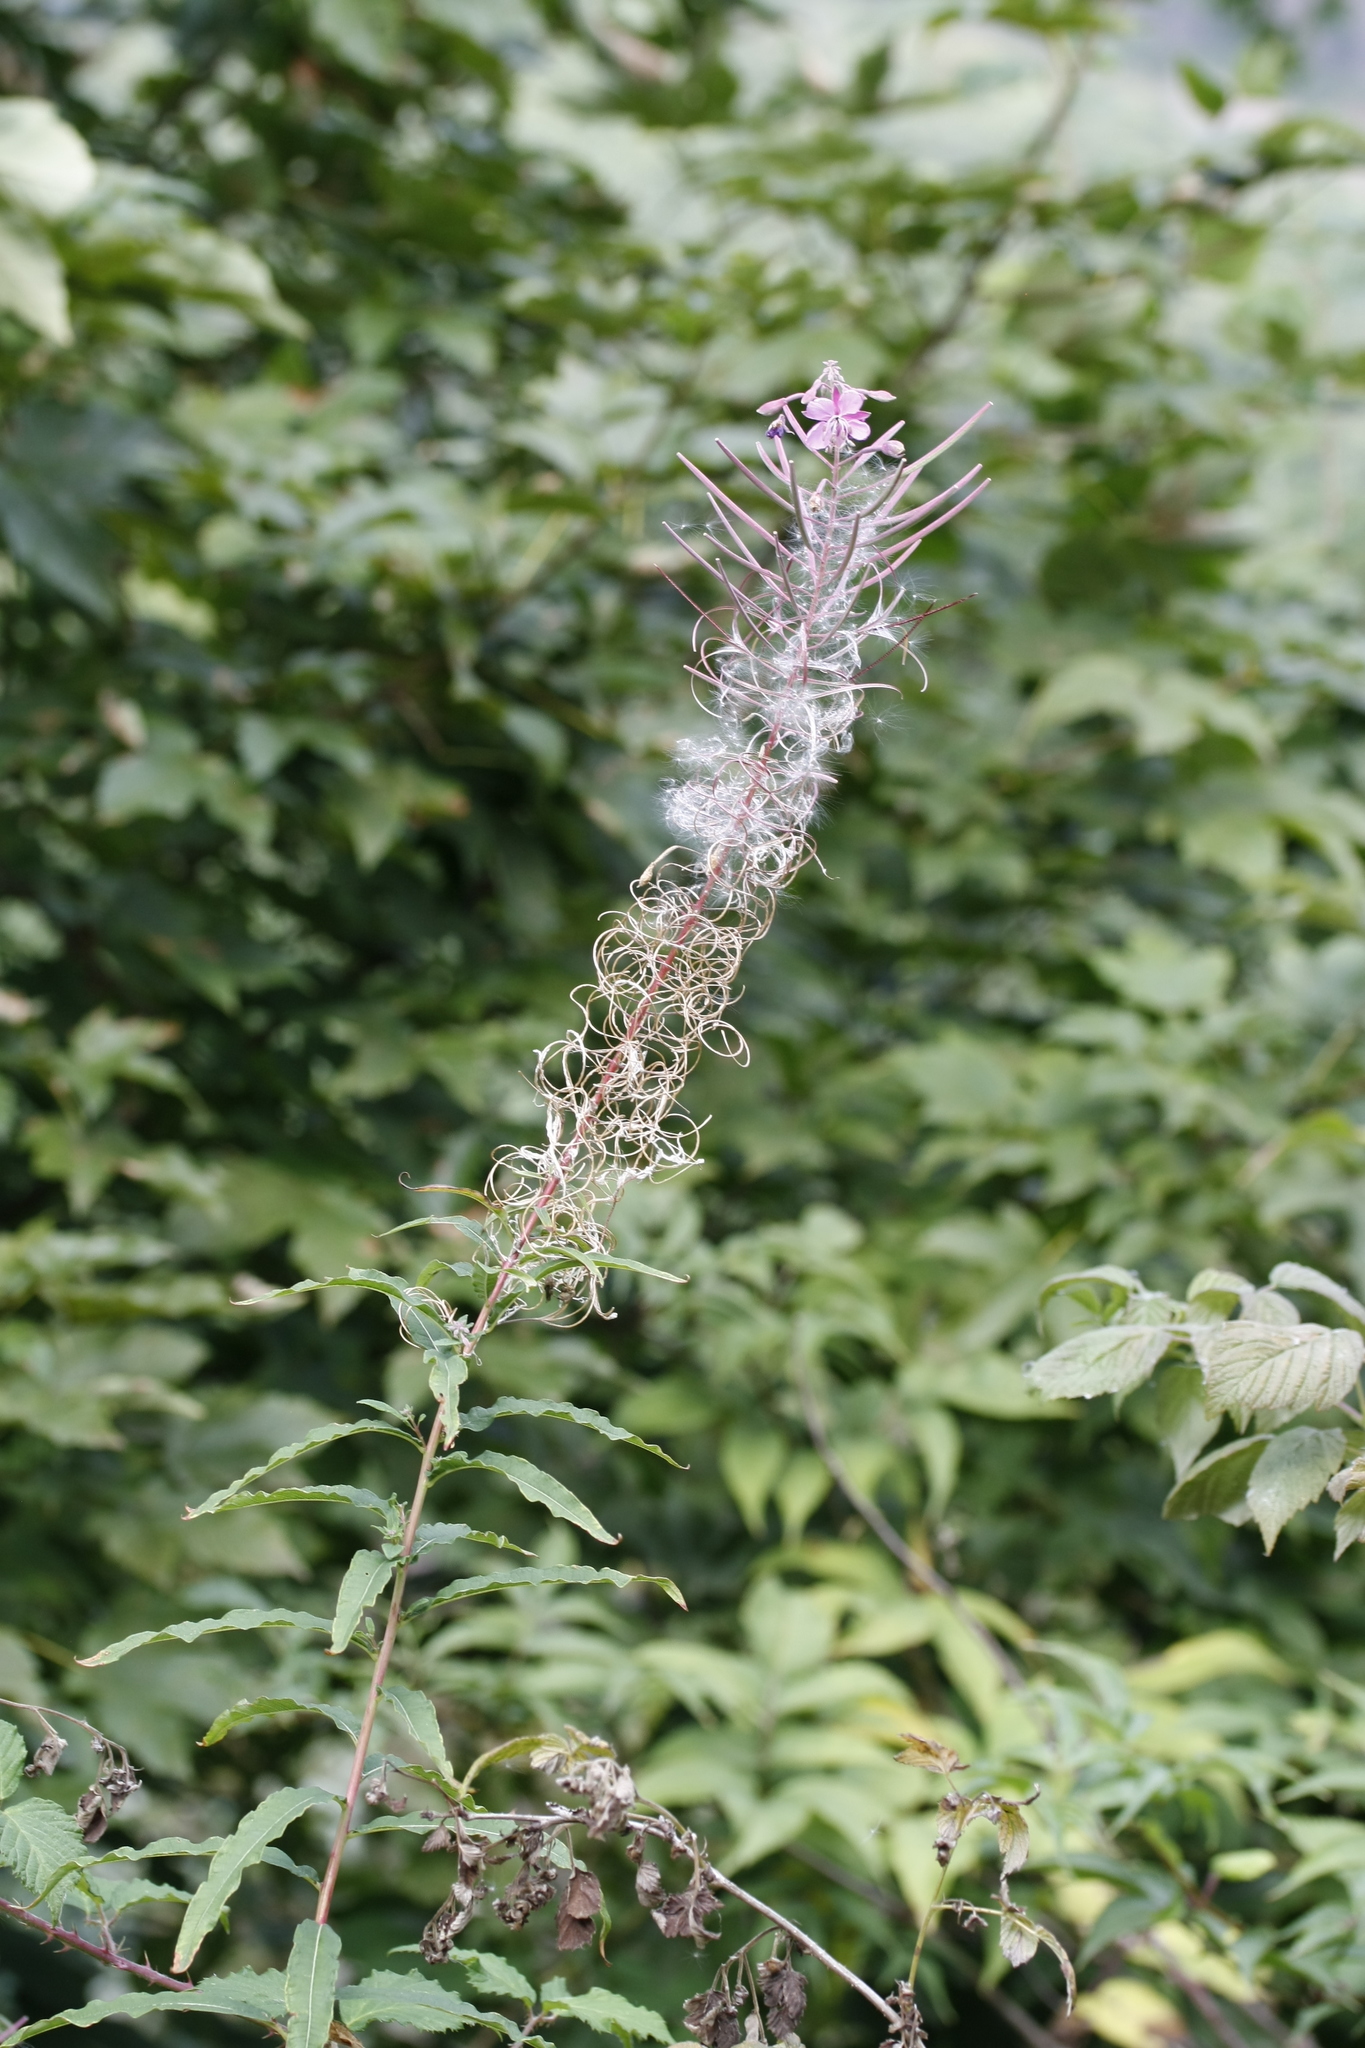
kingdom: Plantae
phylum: Tracheophyta
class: Magnoliopsida
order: Myrtales
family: Onagraceae
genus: Chamaenerion
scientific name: Chamaenerion angustifolium
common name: Fireweed
